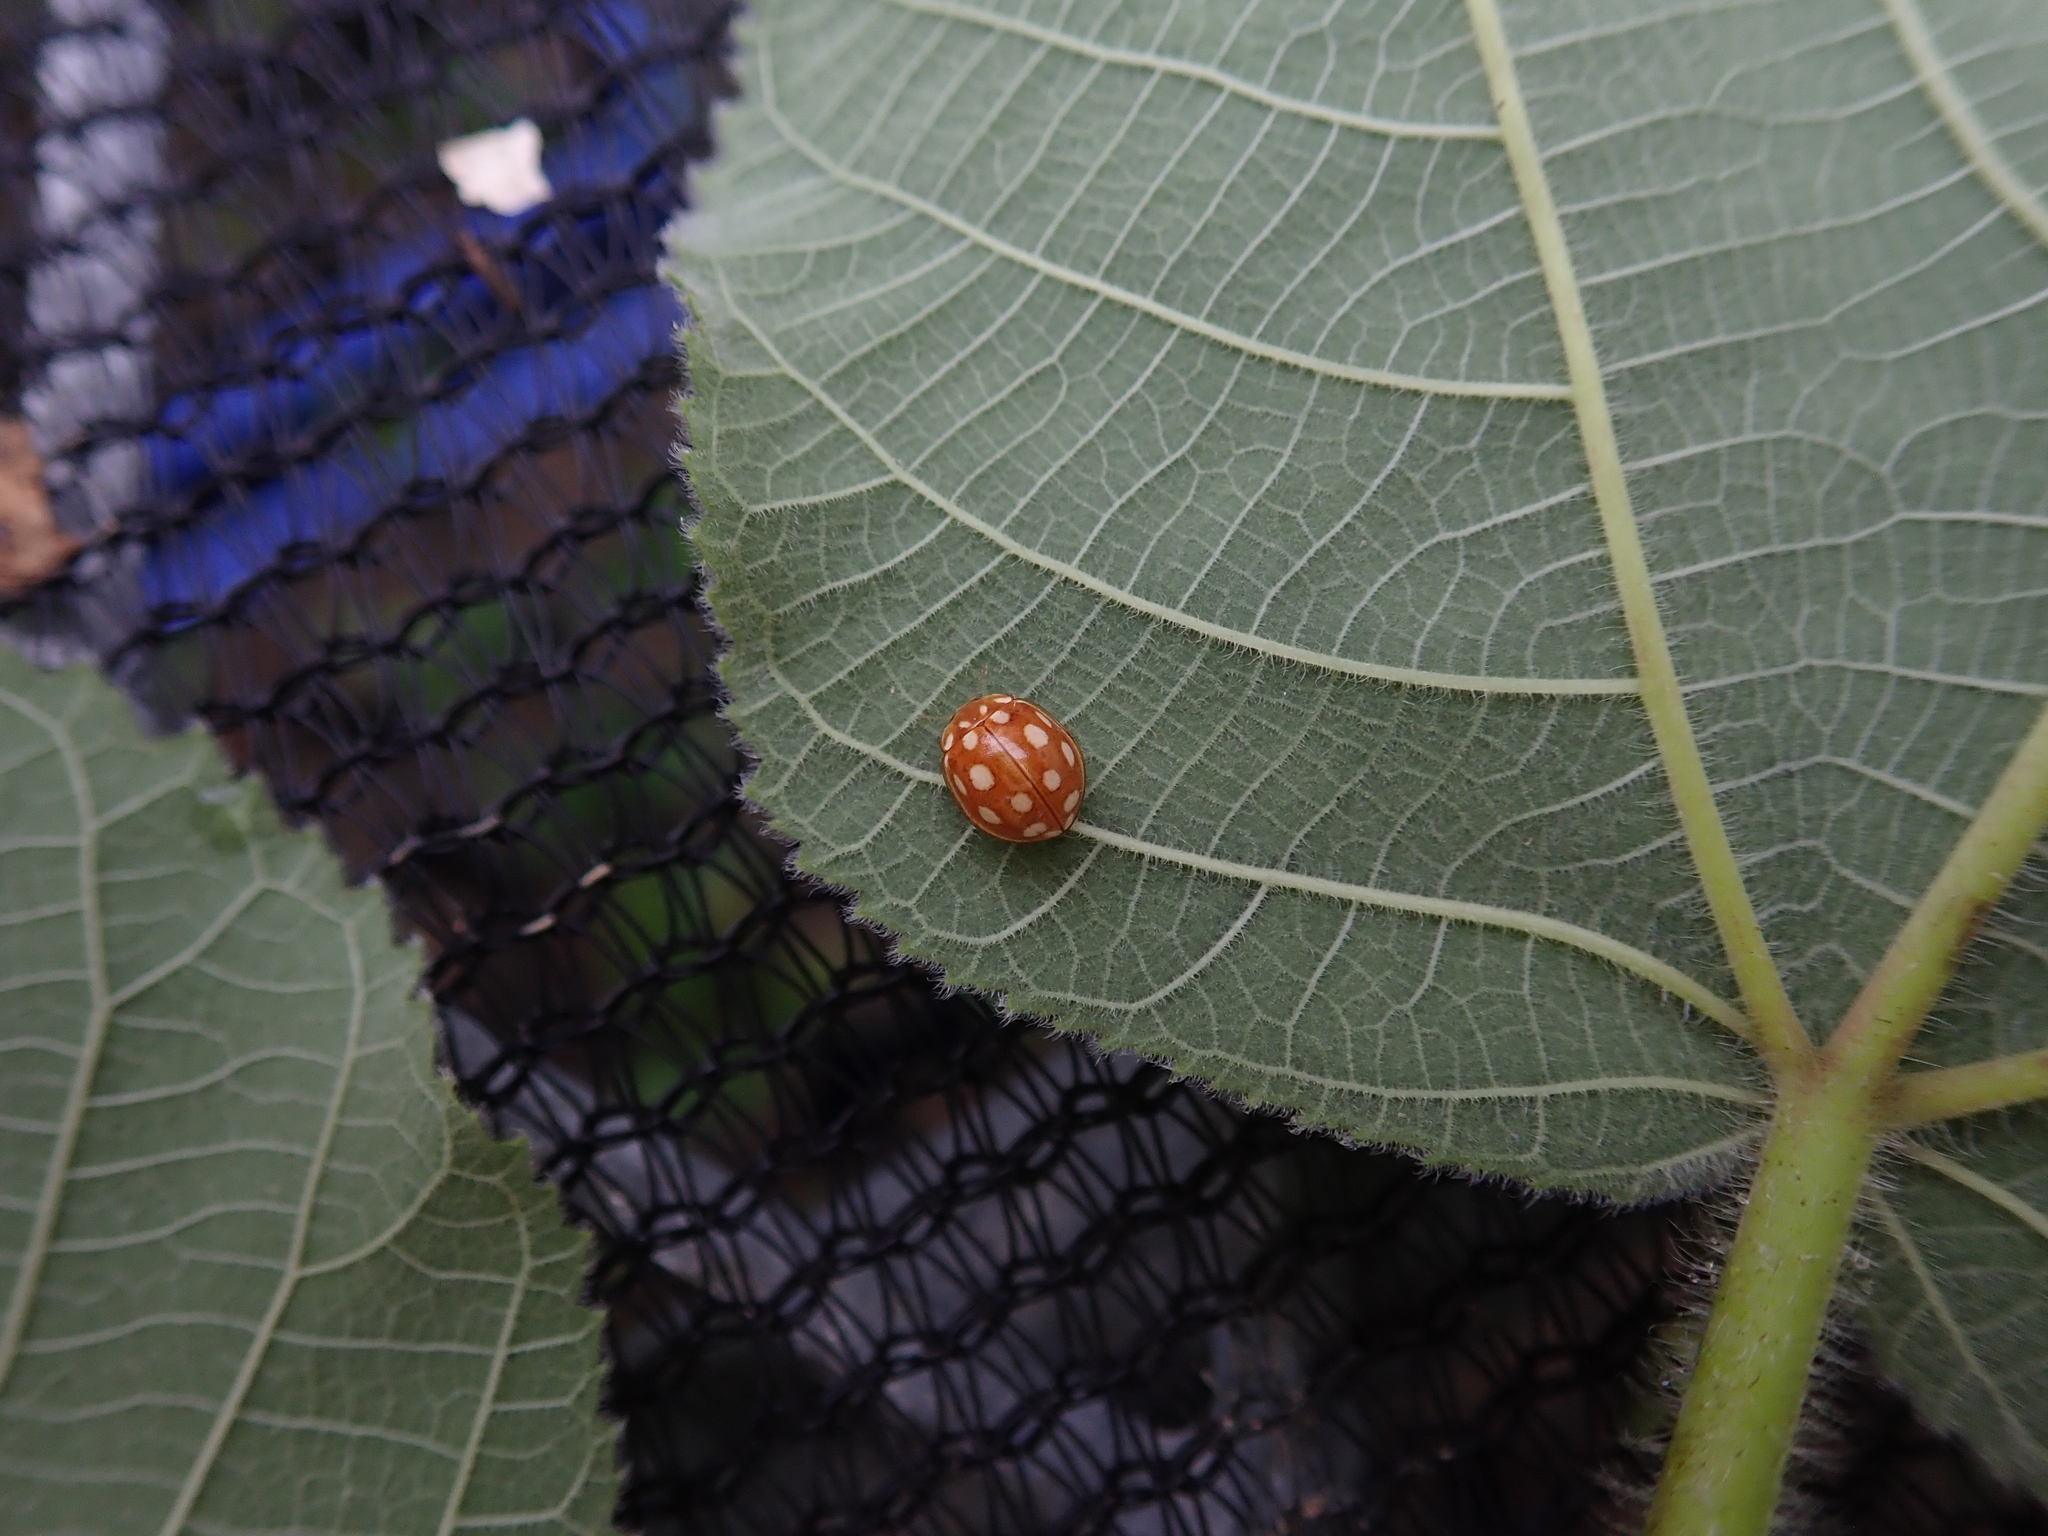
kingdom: Animalia
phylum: Arthropoda
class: Insecta
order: Coleoptera
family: Coccinellidae
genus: Calvia
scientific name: Calvia muiri
